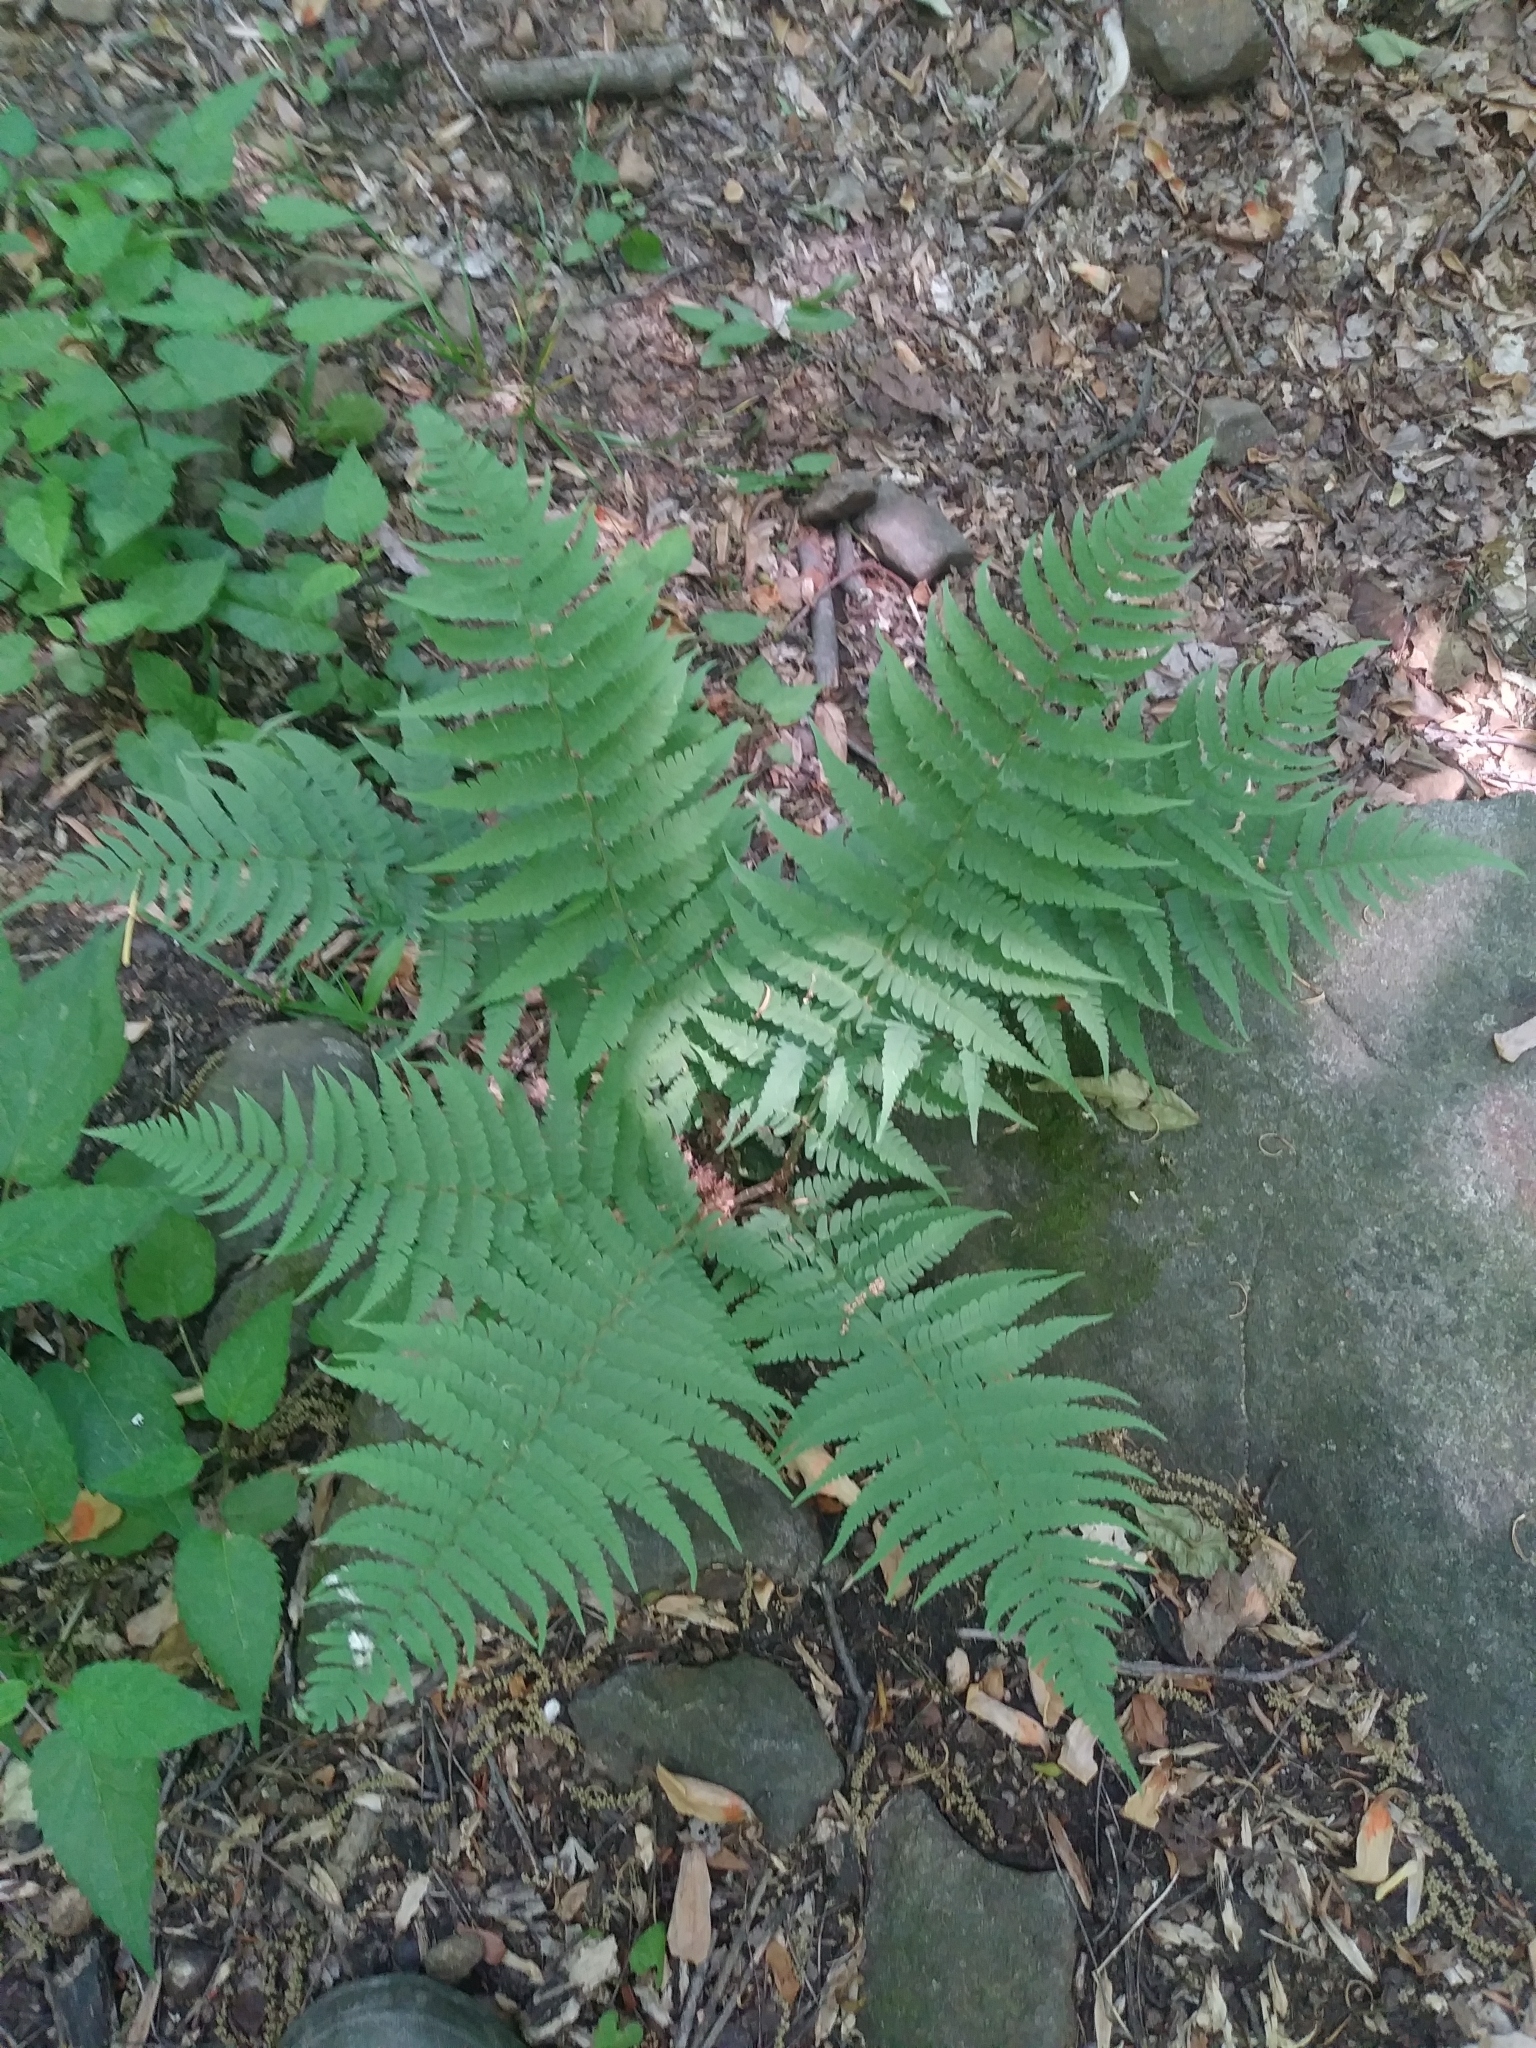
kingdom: Plantae
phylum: Tracheophyta
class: Polypodiopsida
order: Polypodiales
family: Dryopteridaceae
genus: Dryopteris
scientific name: Dryopteris marginalis
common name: Marginal wood fern
